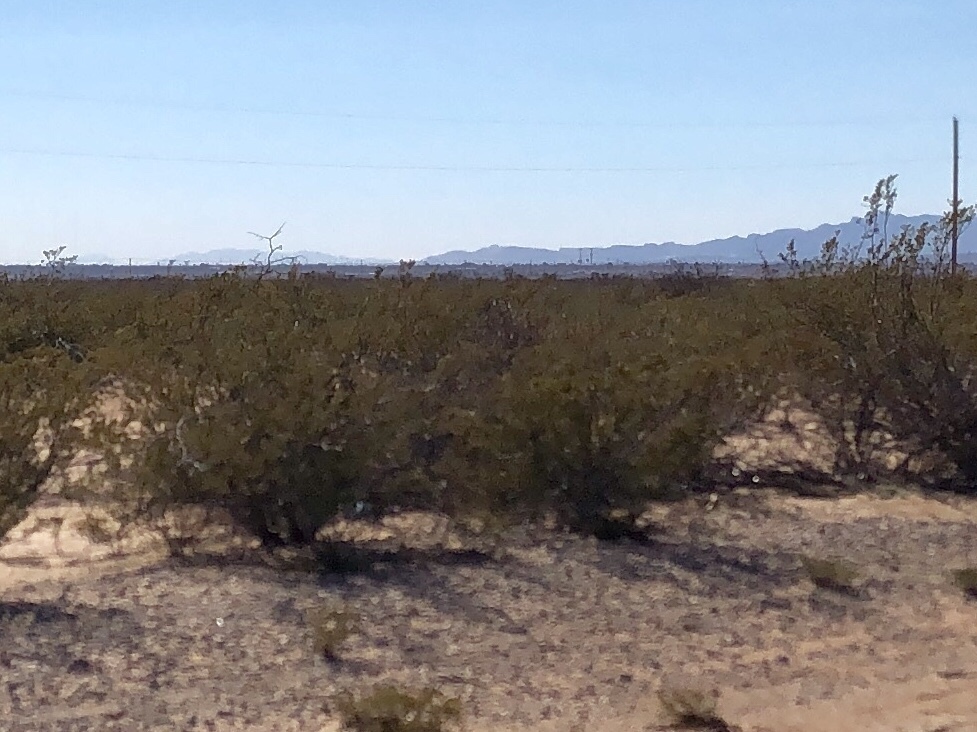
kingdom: Plantae
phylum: Tracheophyta
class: Magnoliopsida
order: Zygophyllales
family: Zygophyllaceae
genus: Larrea
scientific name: Larrea tridentata
